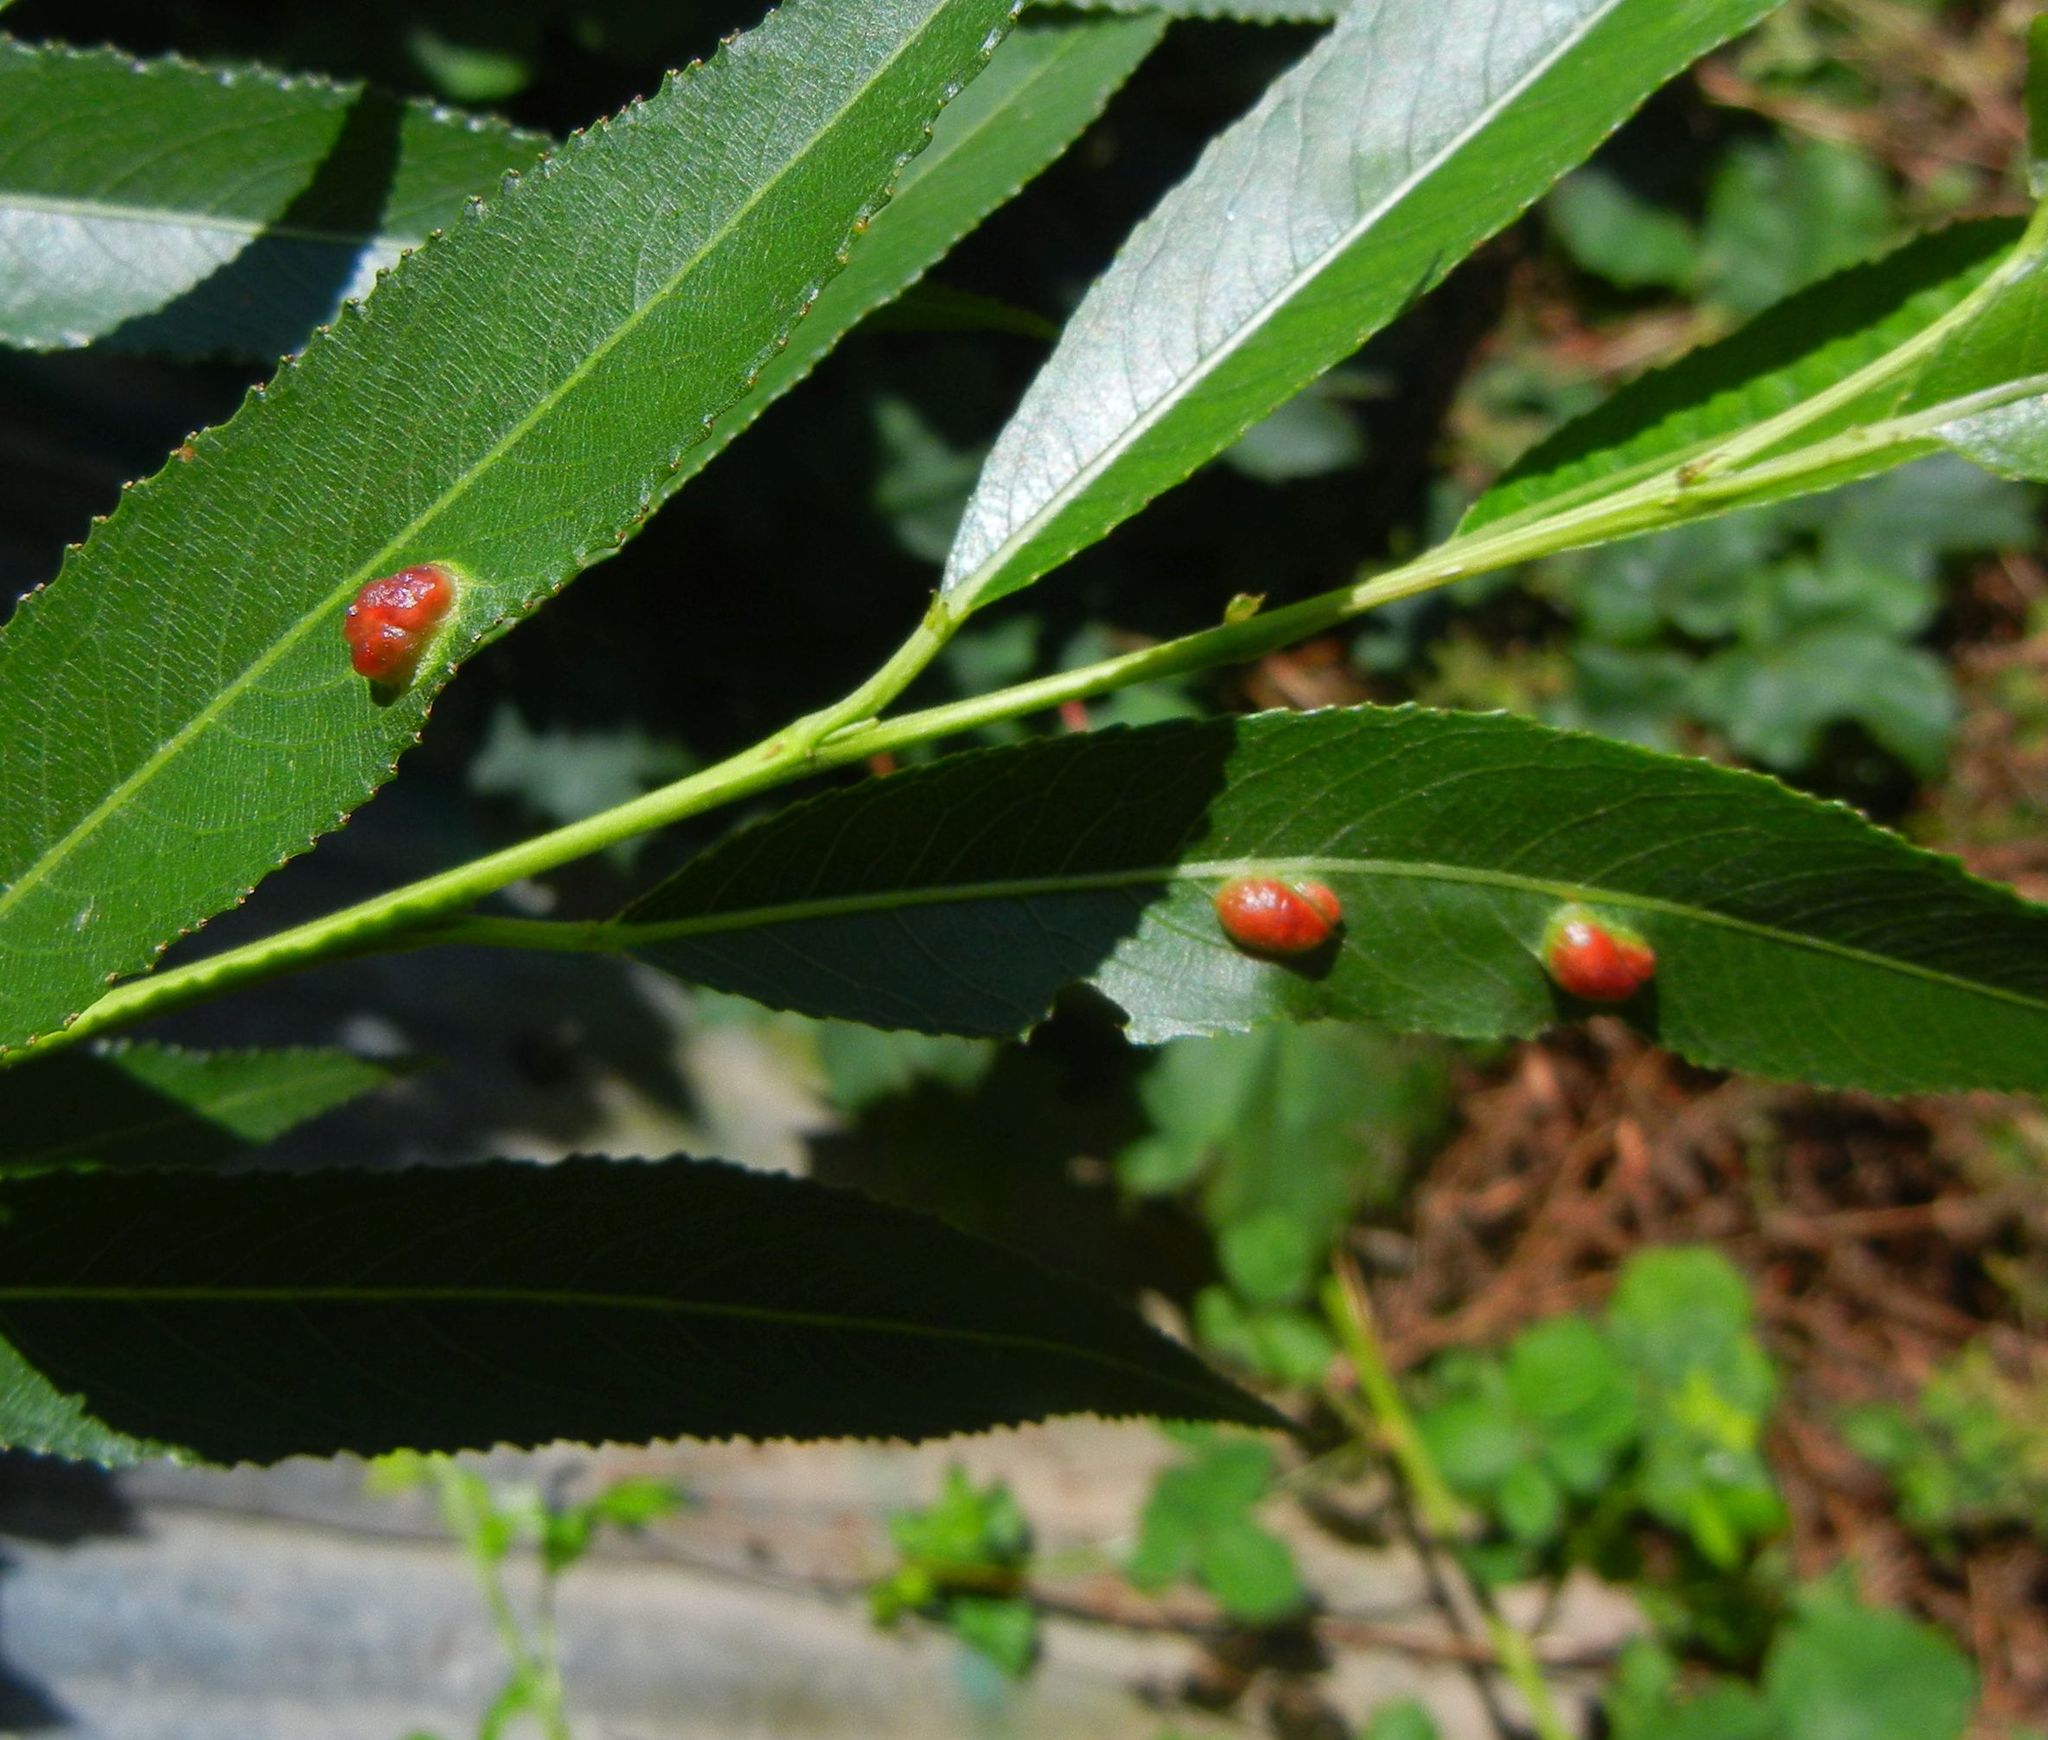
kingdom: Animalia
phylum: Arthropoda
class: Insecta
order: Hymenoptera
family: Tenthredinidae
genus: Pontania
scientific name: Pontania proxima
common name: Common sawfly
